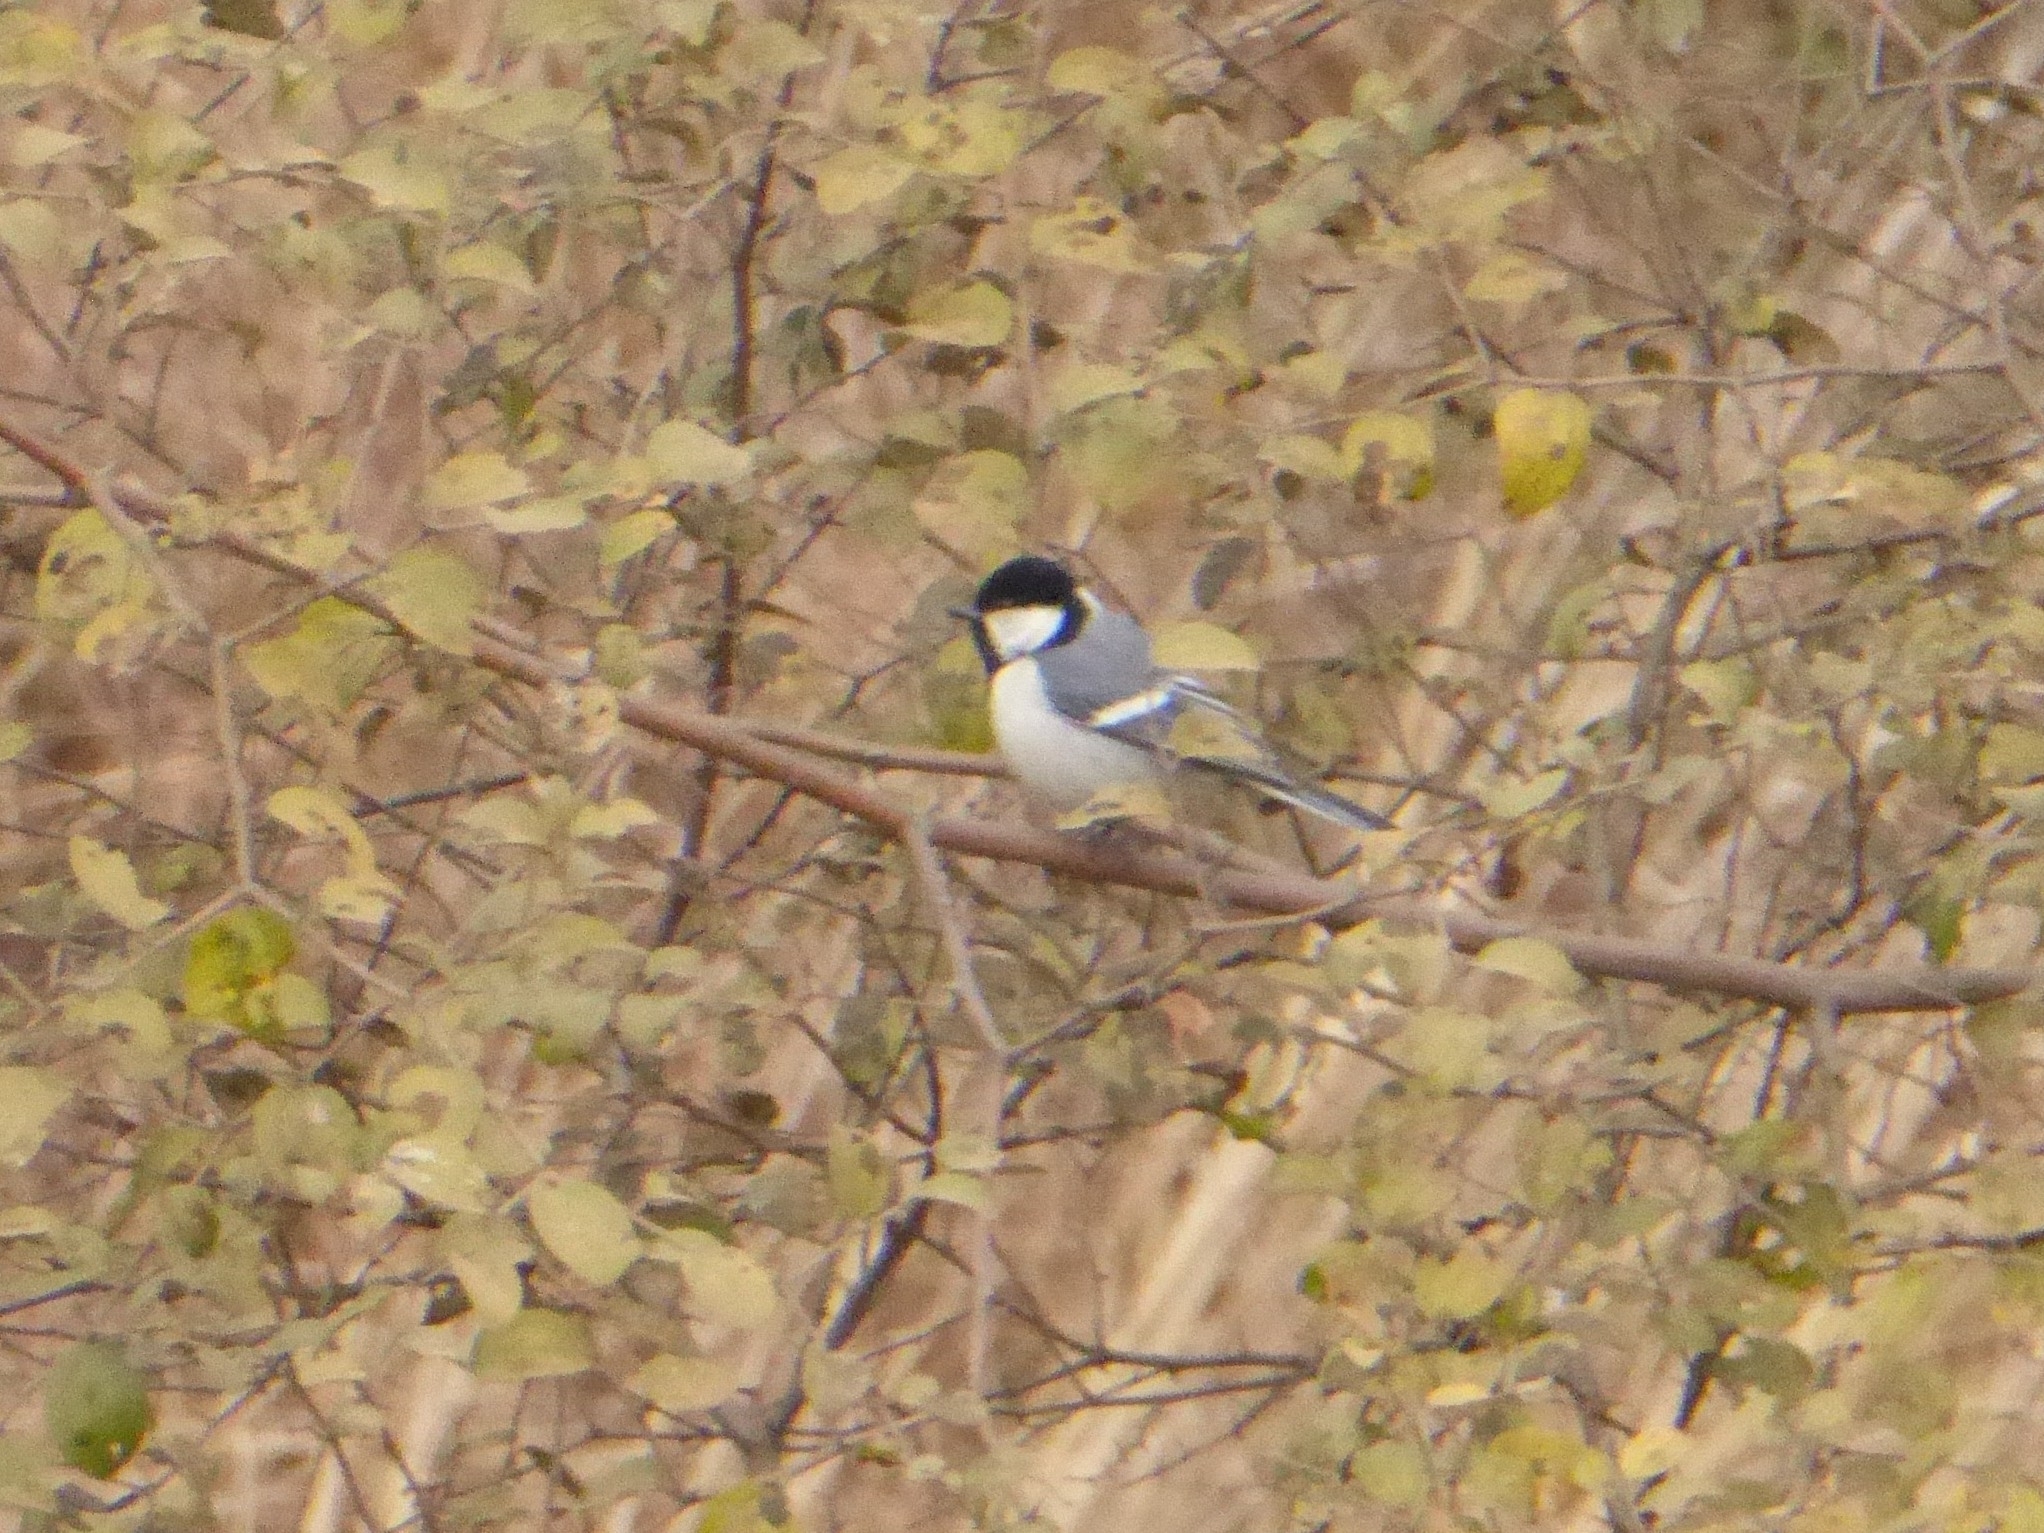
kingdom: Animalia
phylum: Chordata
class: Aves
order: Passeriformes
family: Paridae
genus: Parus
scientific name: Parus cinereus
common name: Cinereous tit
